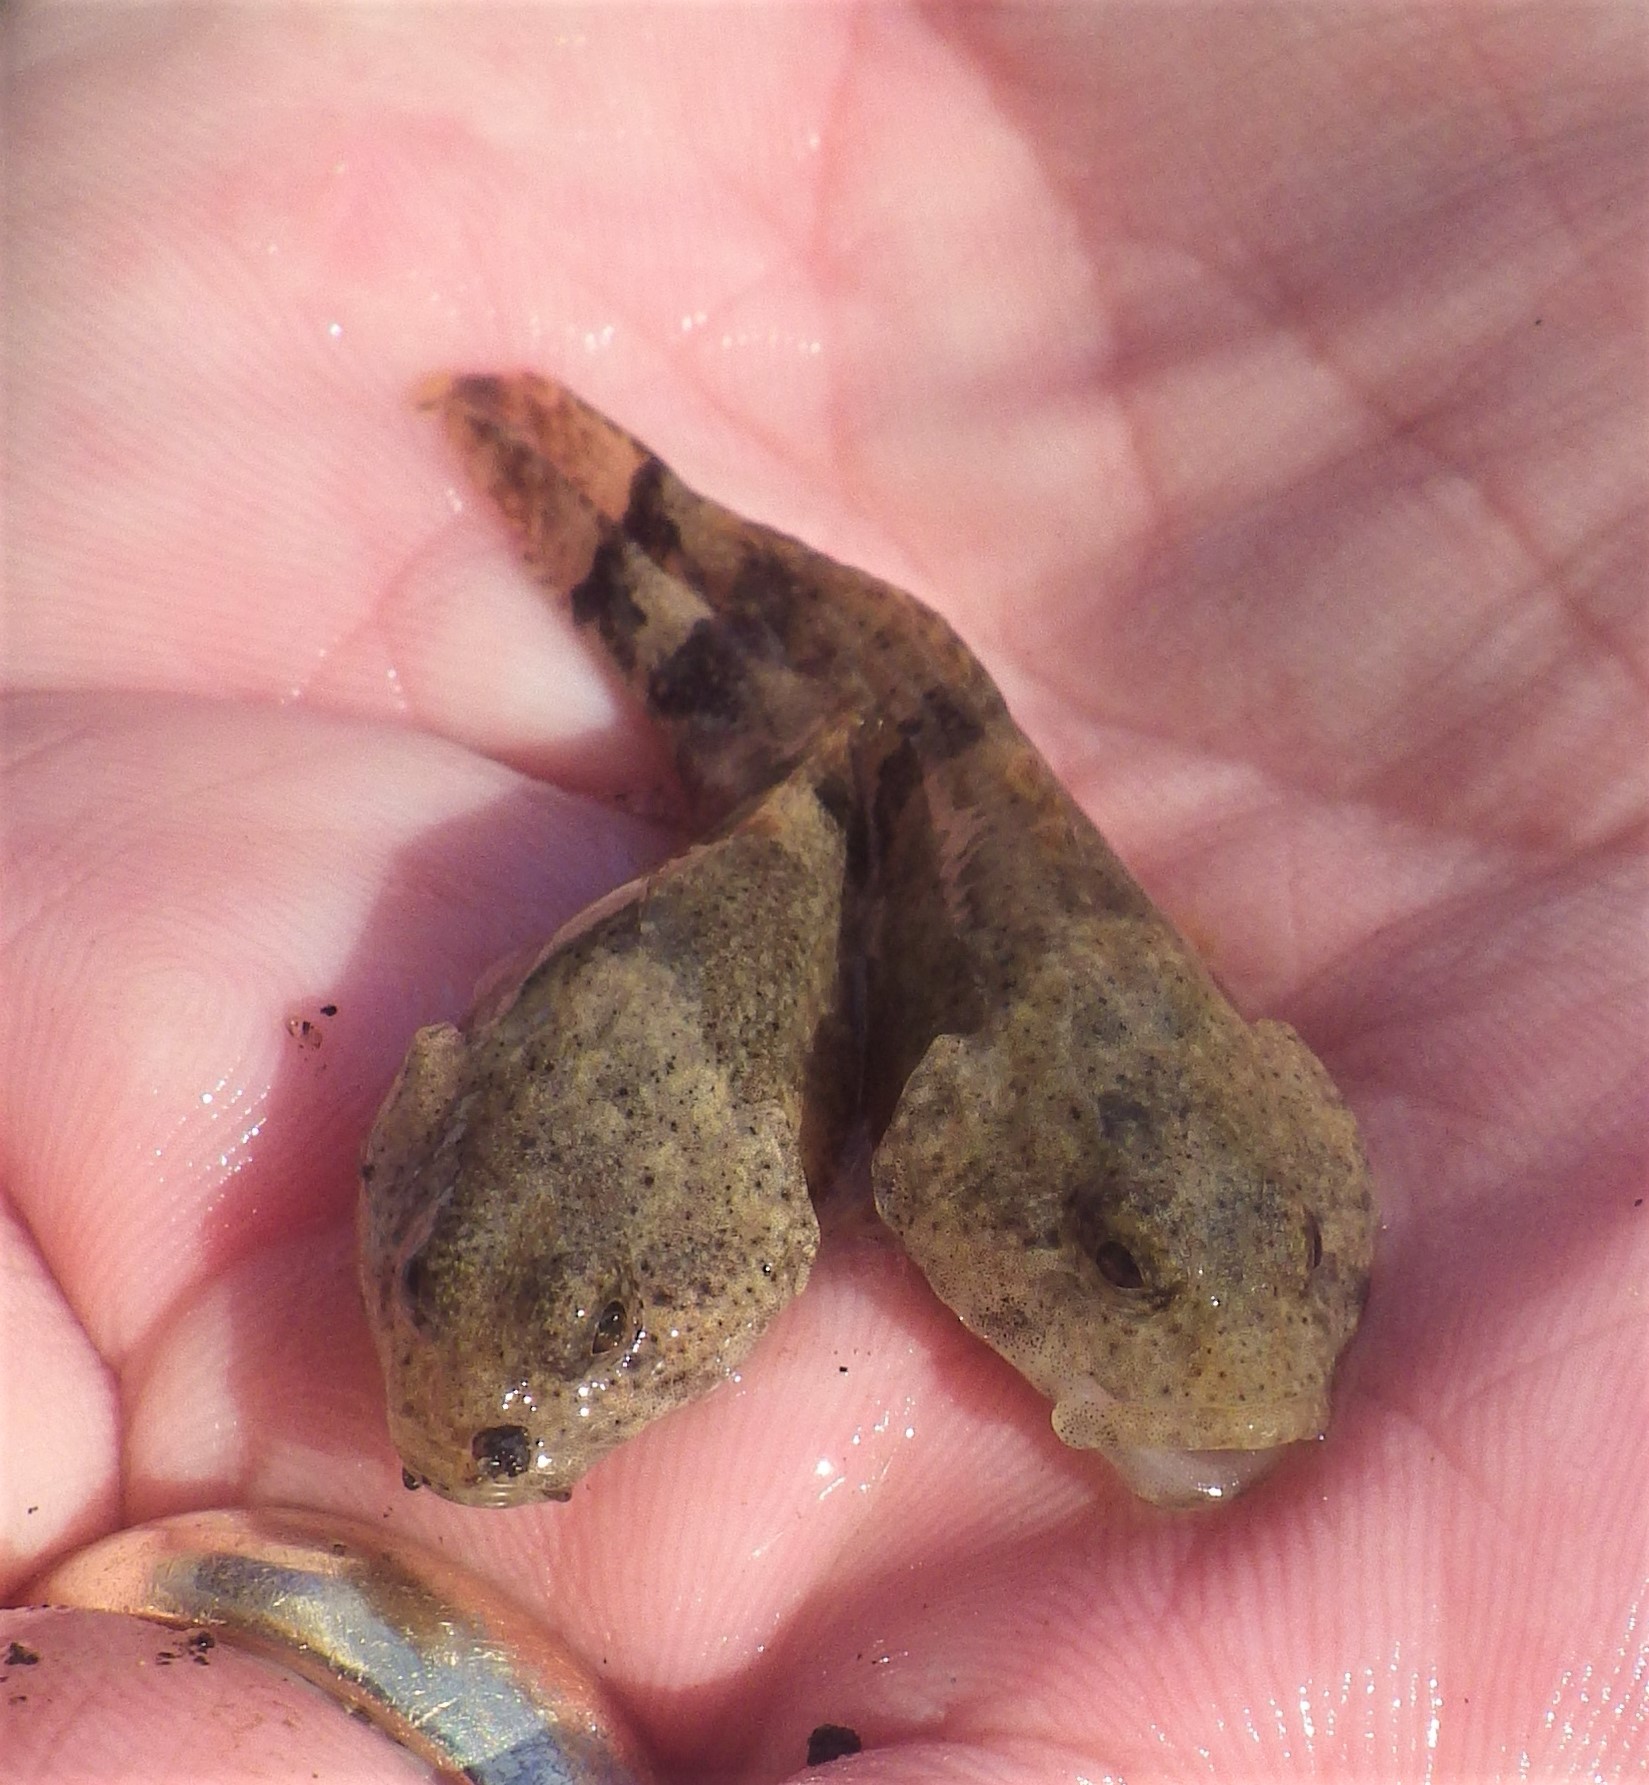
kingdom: Animalia
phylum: Chordata
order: Scorpaeniformes
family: Cottidae
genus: Cottus
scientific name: Cottus bairdii
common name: Mottled sculpin
